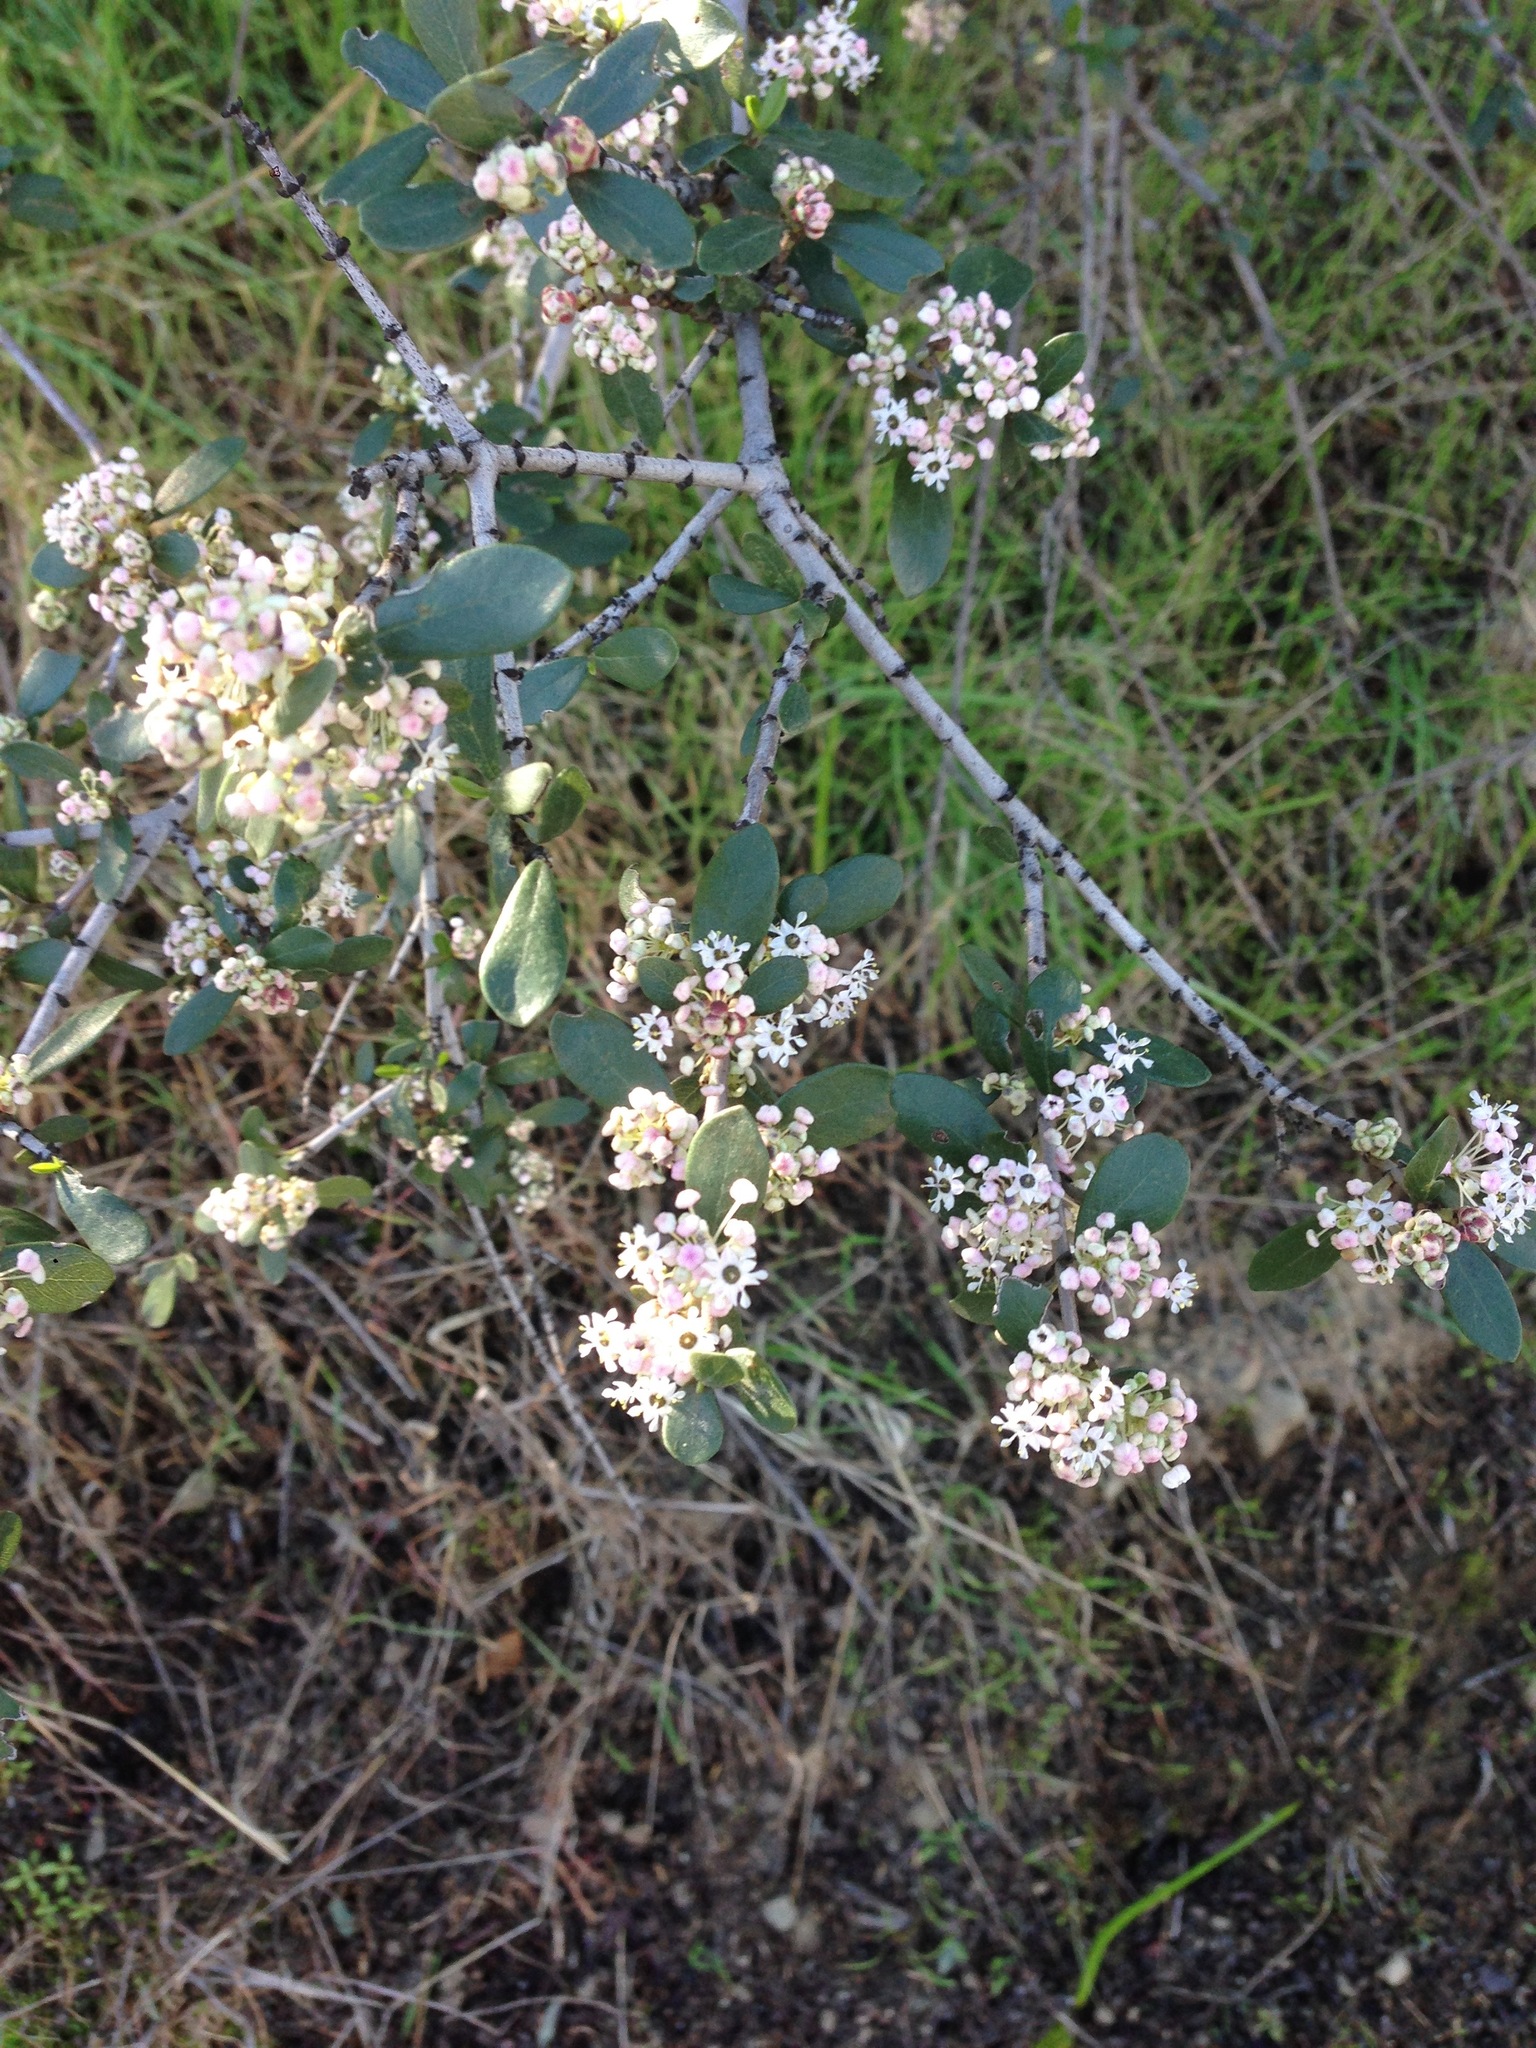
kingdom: Plantae
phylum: Tracheophyta
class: Magnoliopsida
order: Rosales
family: Rhamnaceae
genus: Ceanothus
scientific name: Ceanothus cuneatus
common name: Cuneate ceanothus
